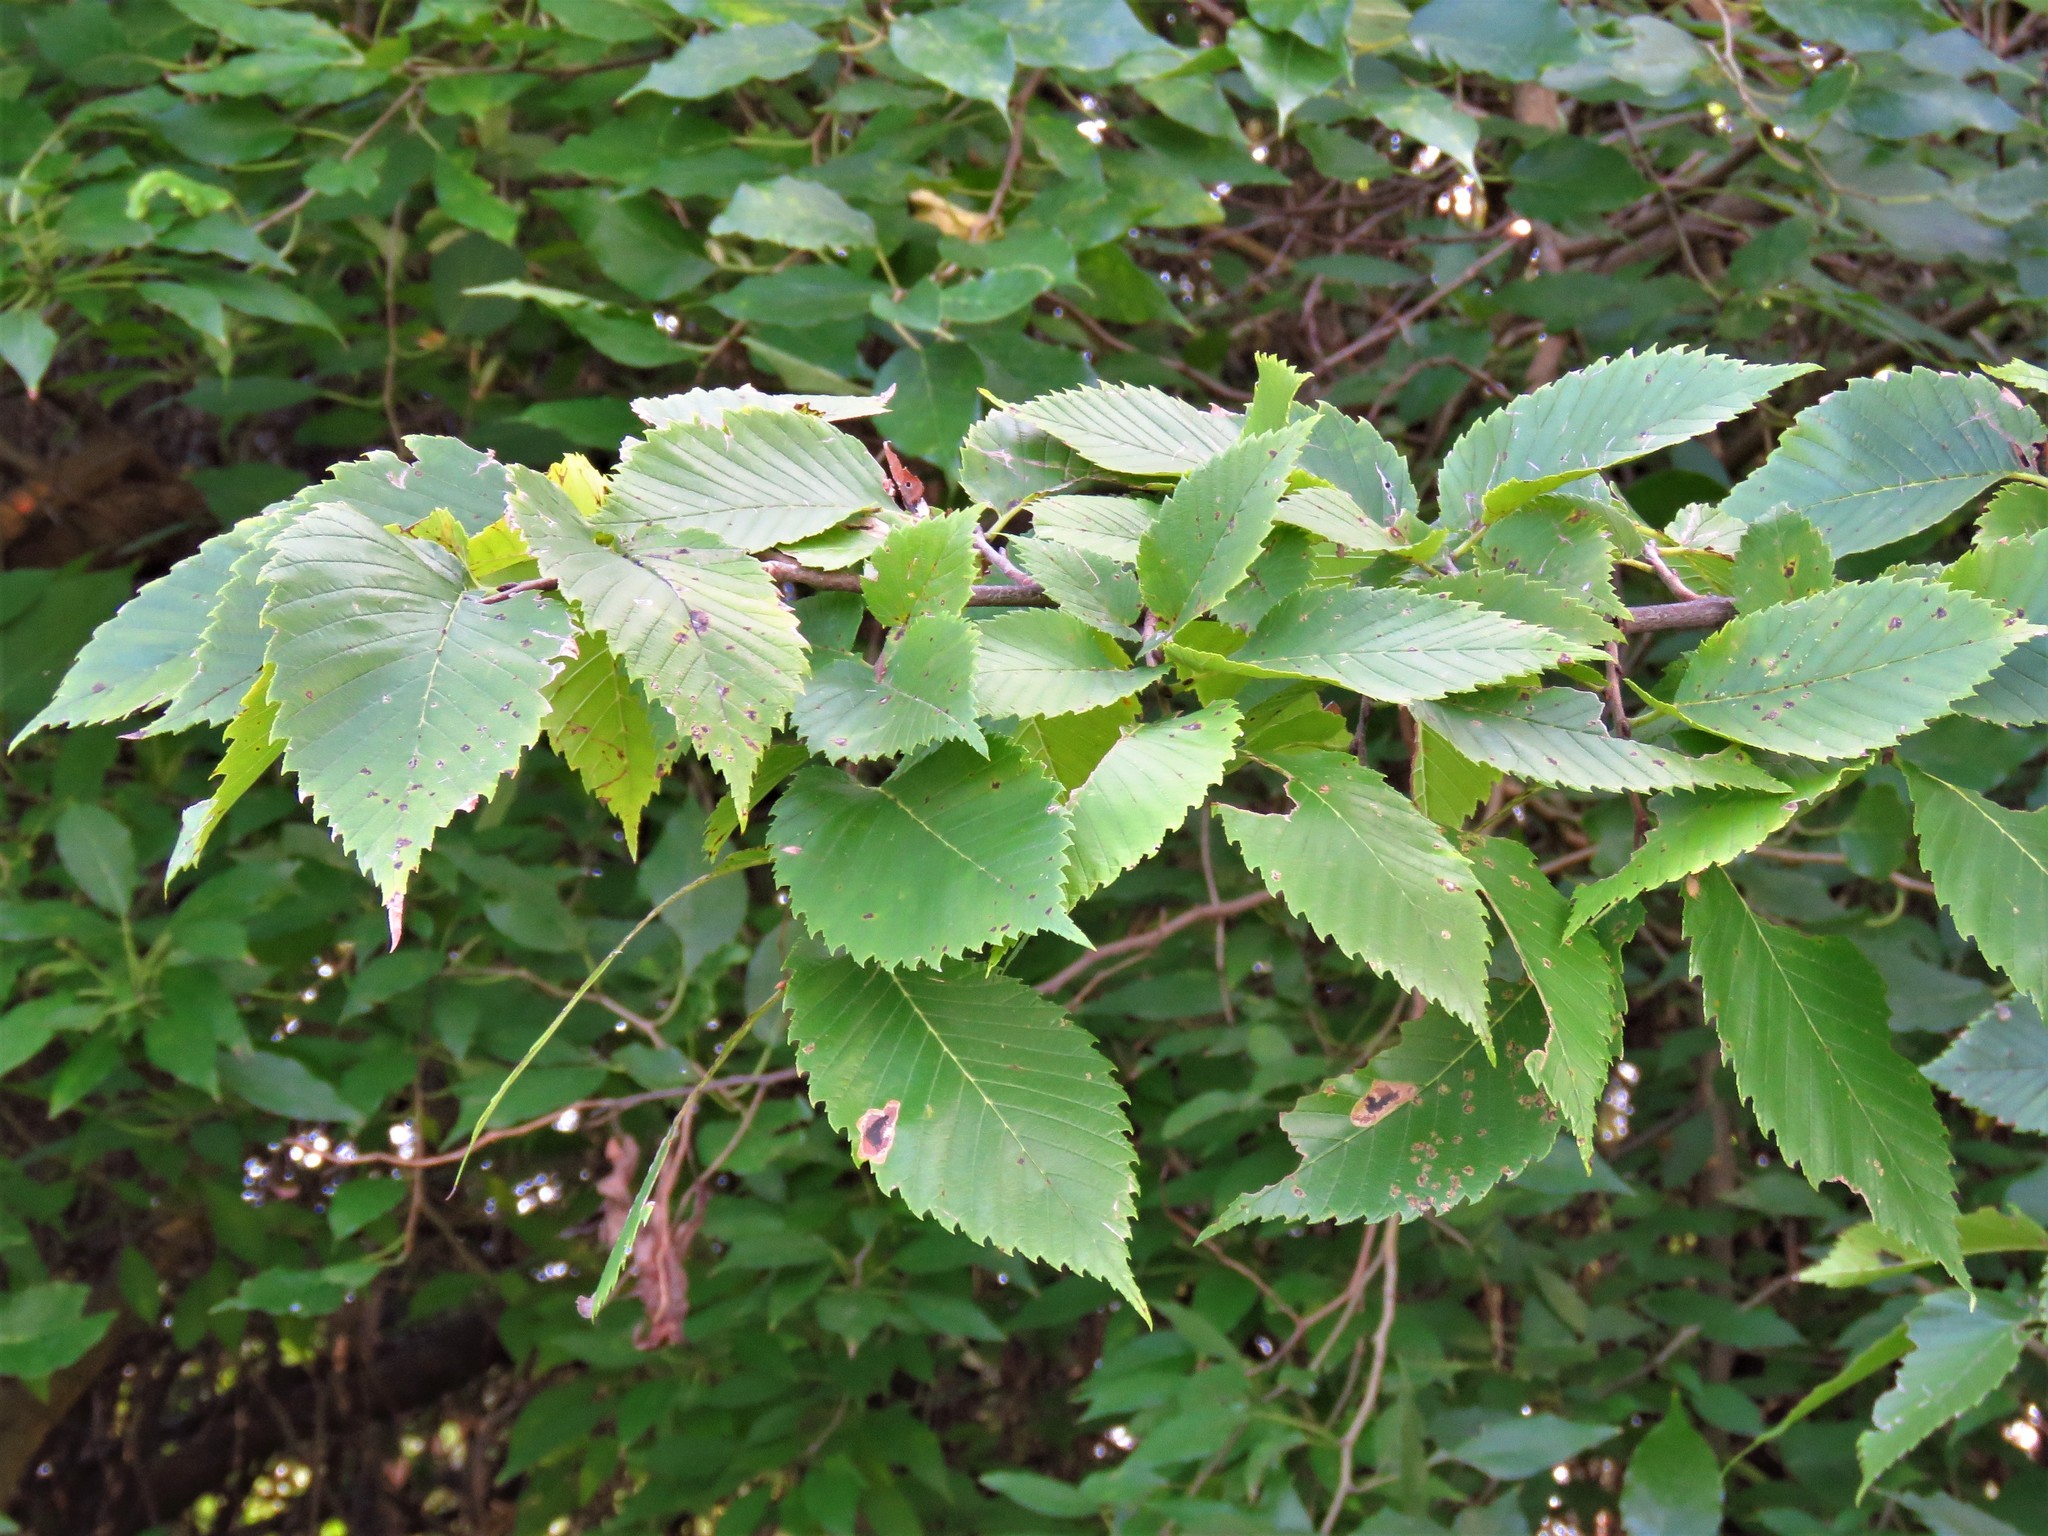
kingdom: Plantae
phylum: Tracheophyta
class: Magnoliopsida
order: Rosales
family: Ulmaceae
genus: Ulmus
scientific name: Ulmus americana
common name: American elm
